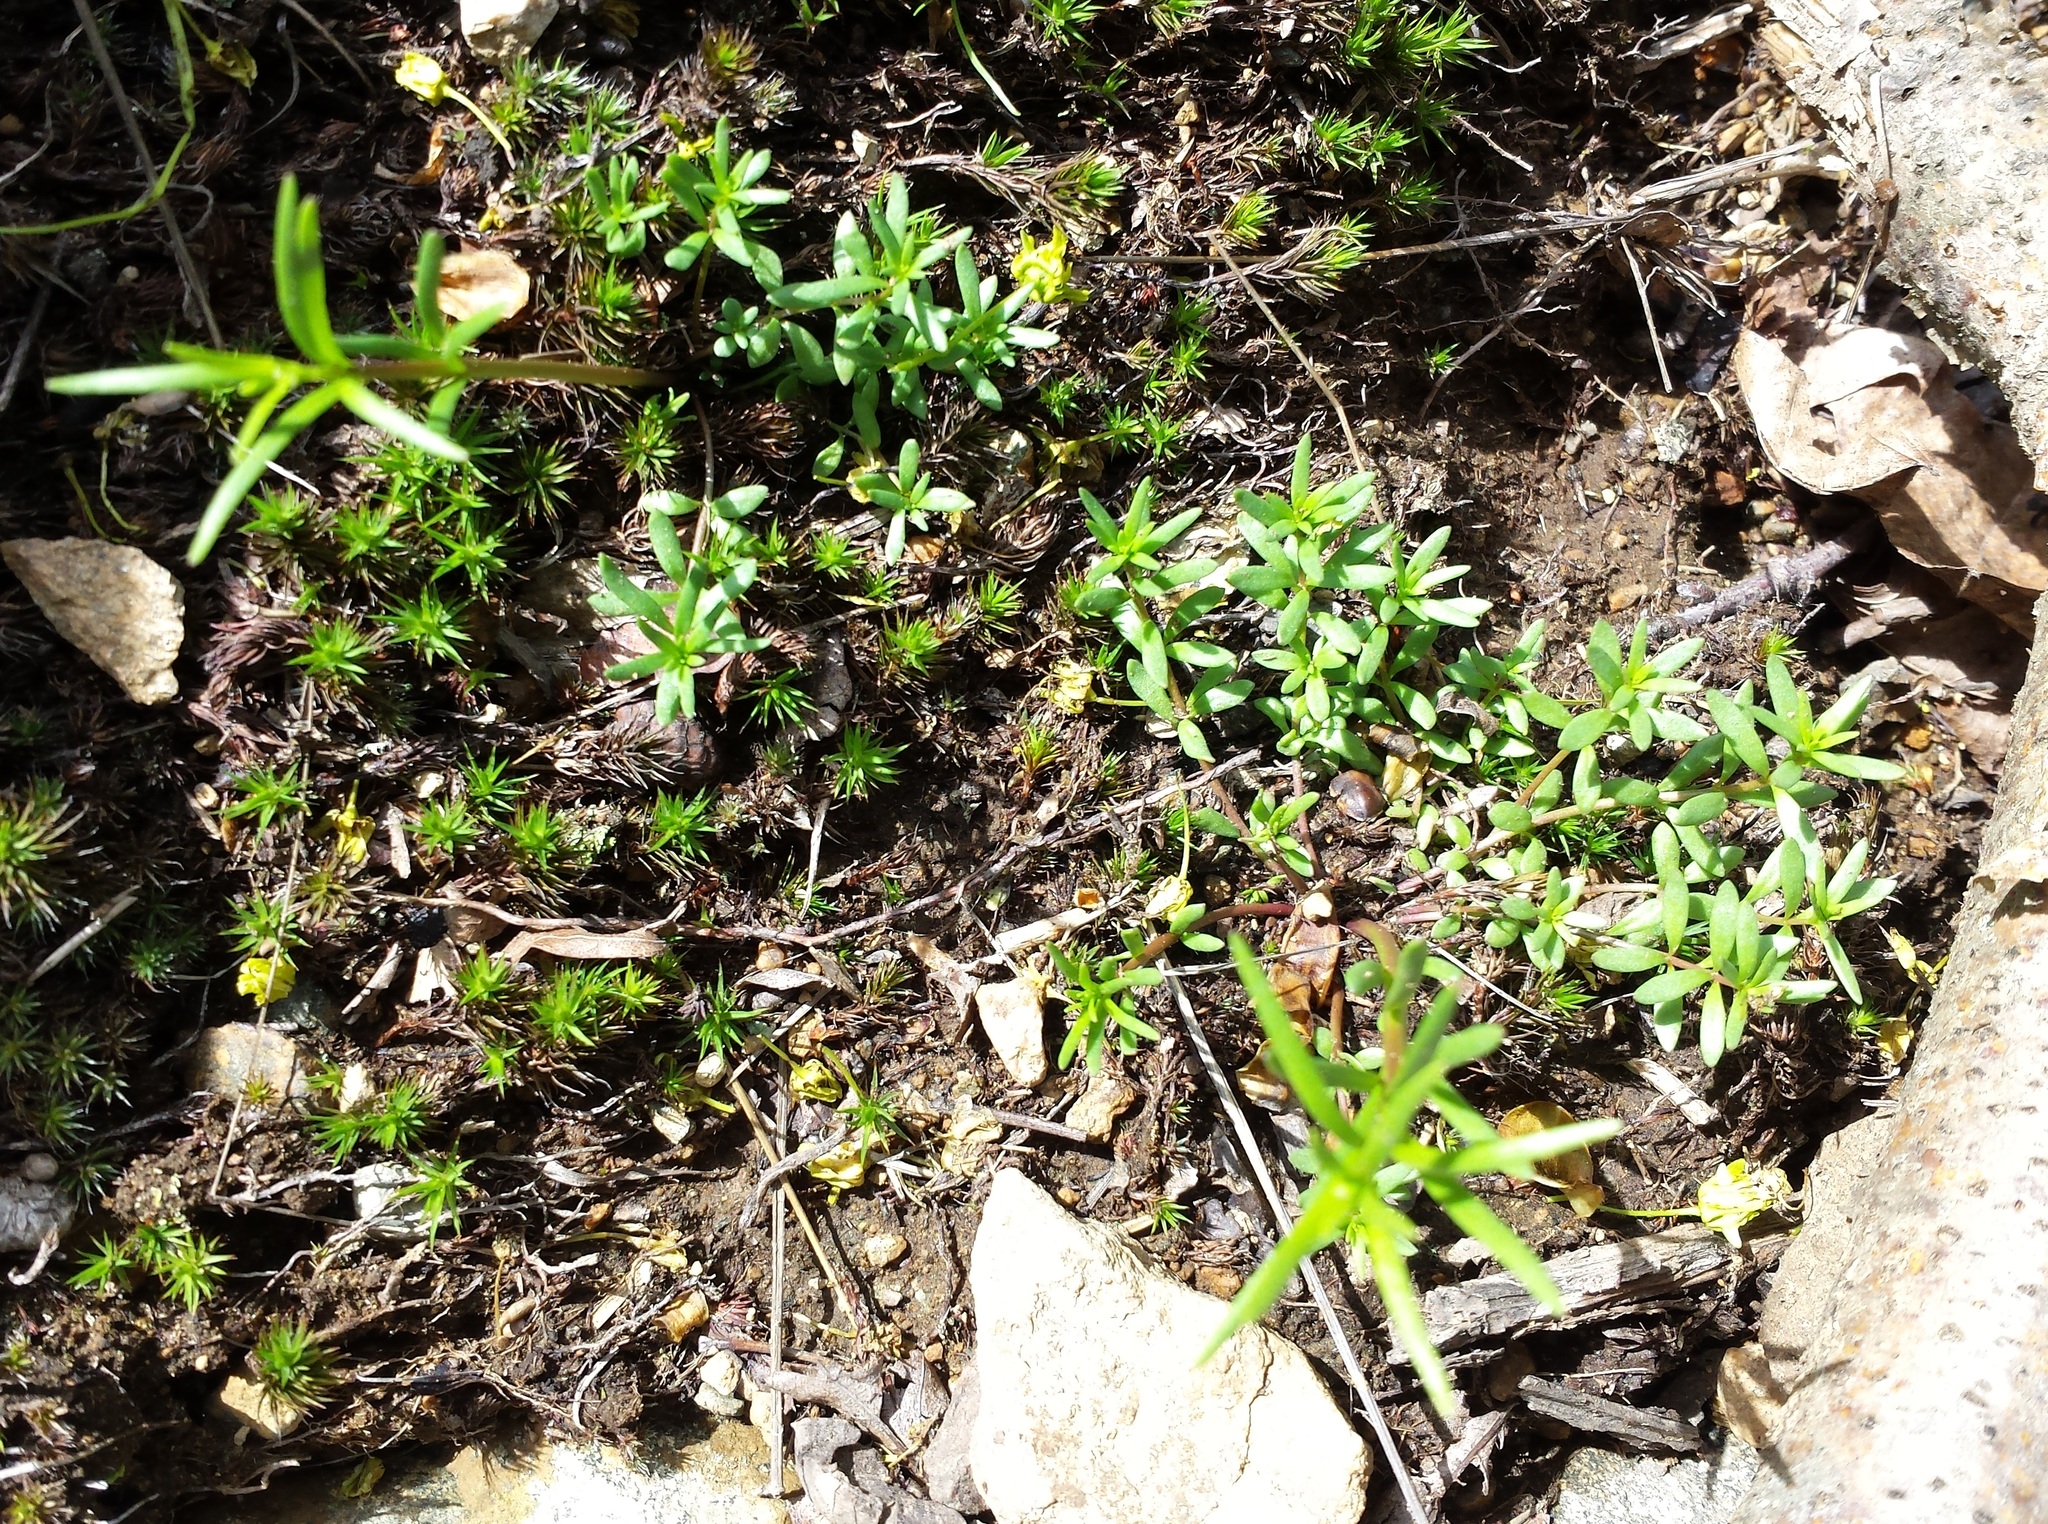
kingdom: Plantae
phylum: Tracheophyta
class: Magnoliopsida
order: Saxifragales
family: Crassulaceae
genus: Sedum
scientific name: Sedum sarmentosum
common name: Stringy stonecrop
